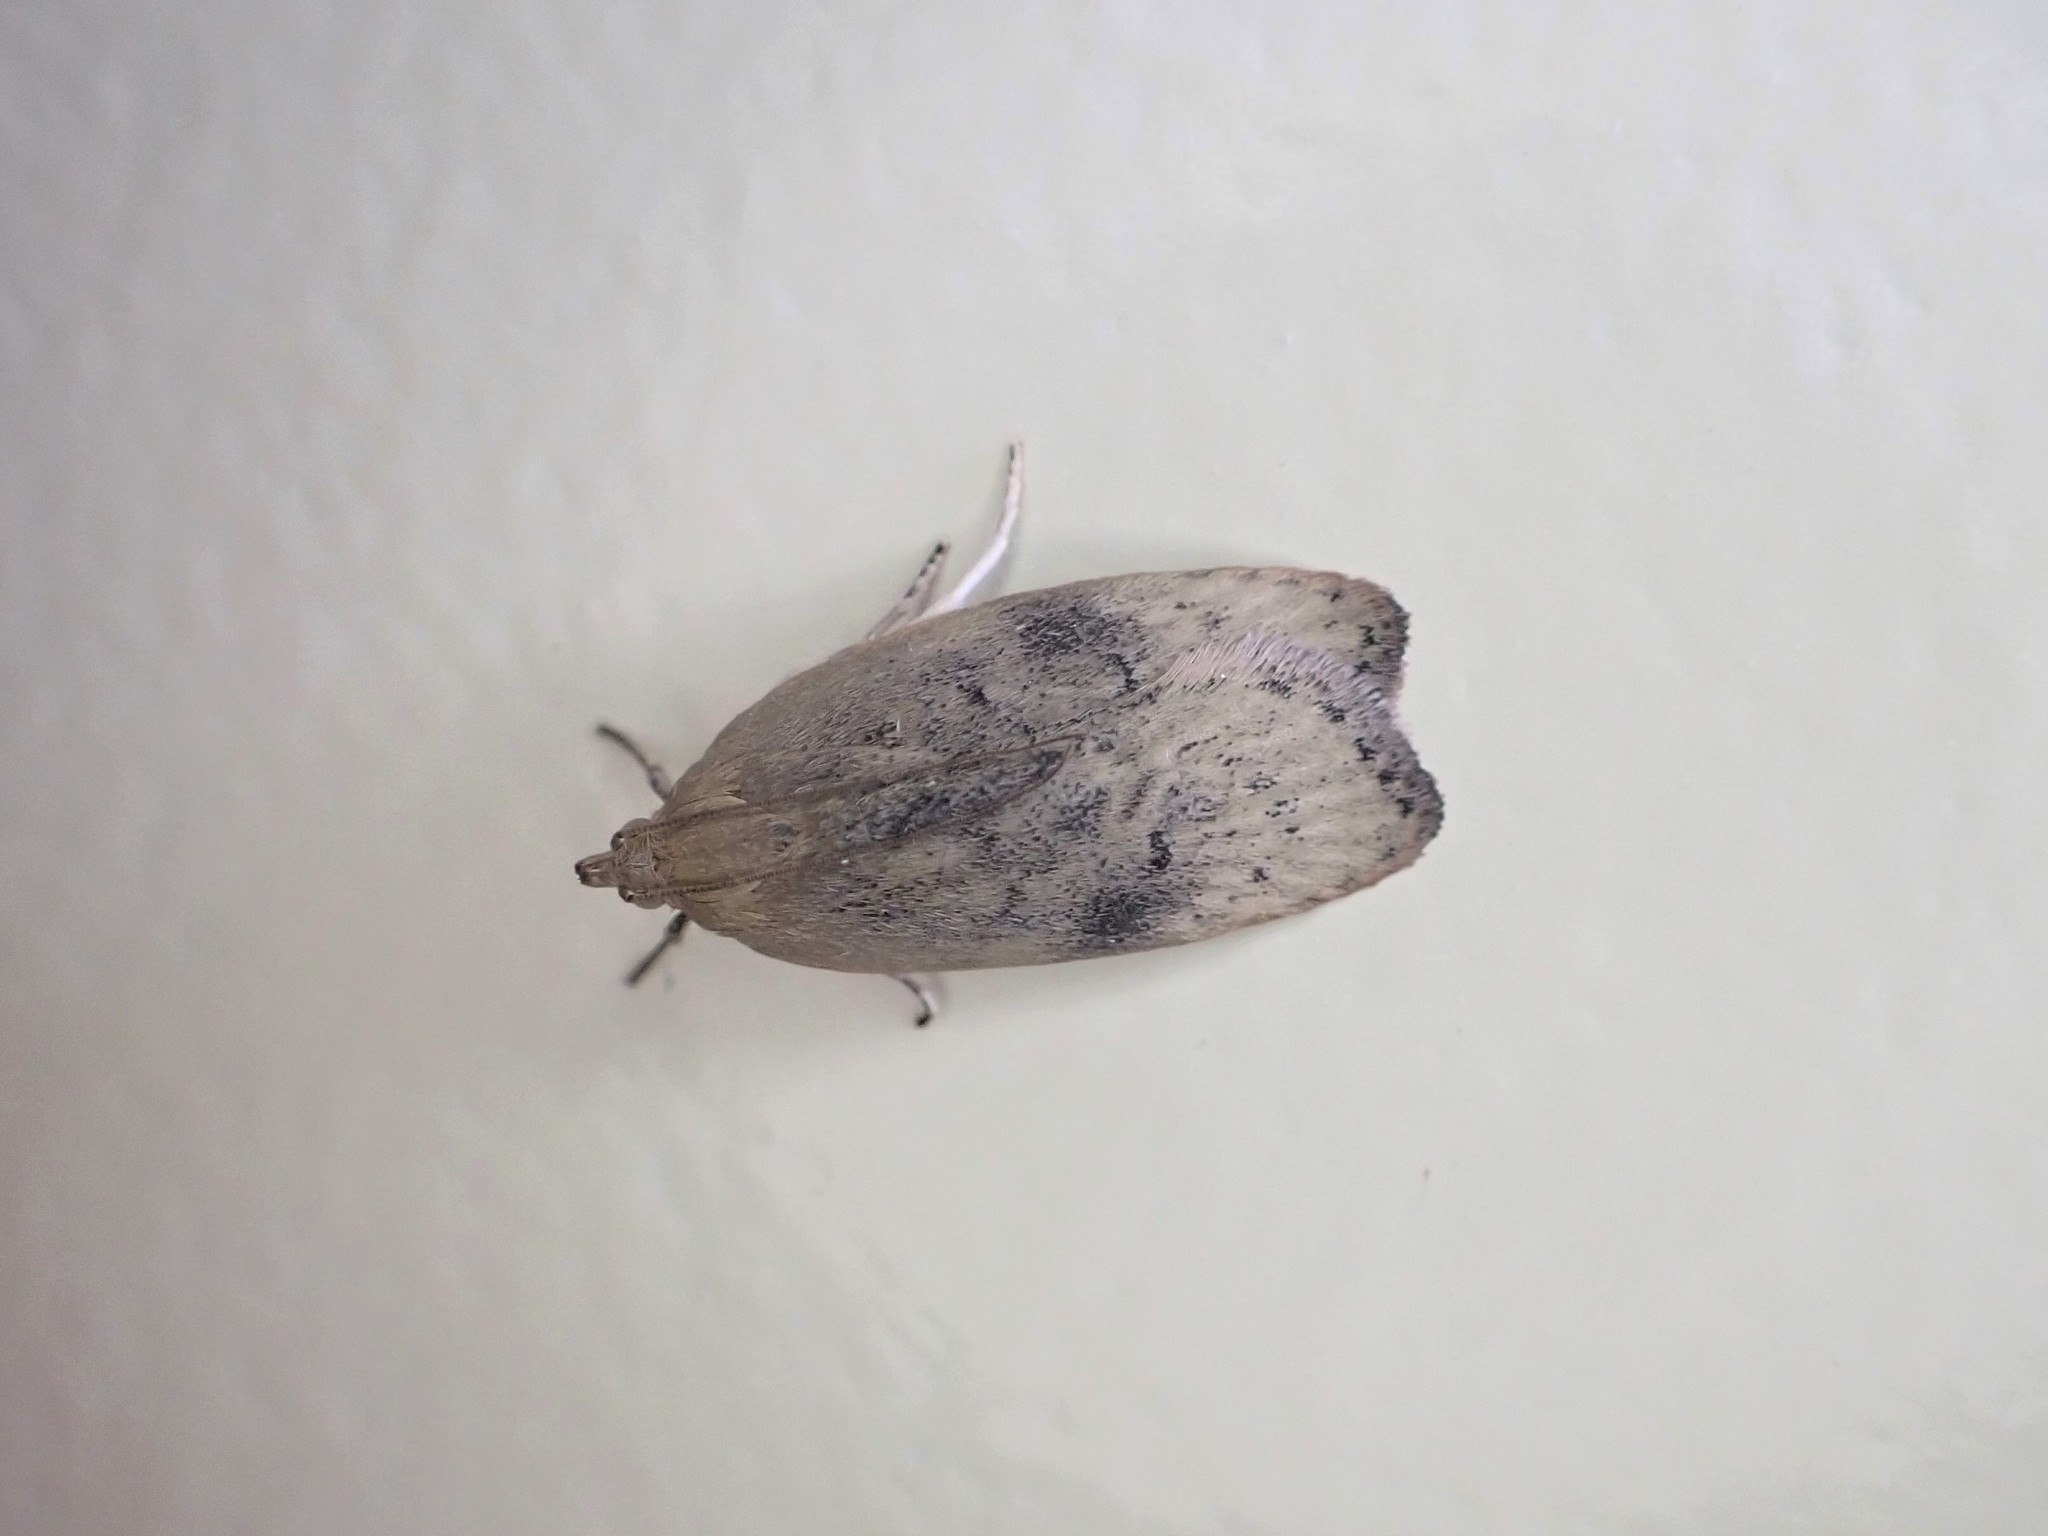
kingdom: Animalia
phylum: Arthropoda
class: Insecta
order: Lepidoptera
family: Depressariidae
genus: Phaeosaces
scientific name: Phaeosaces coarctatella
